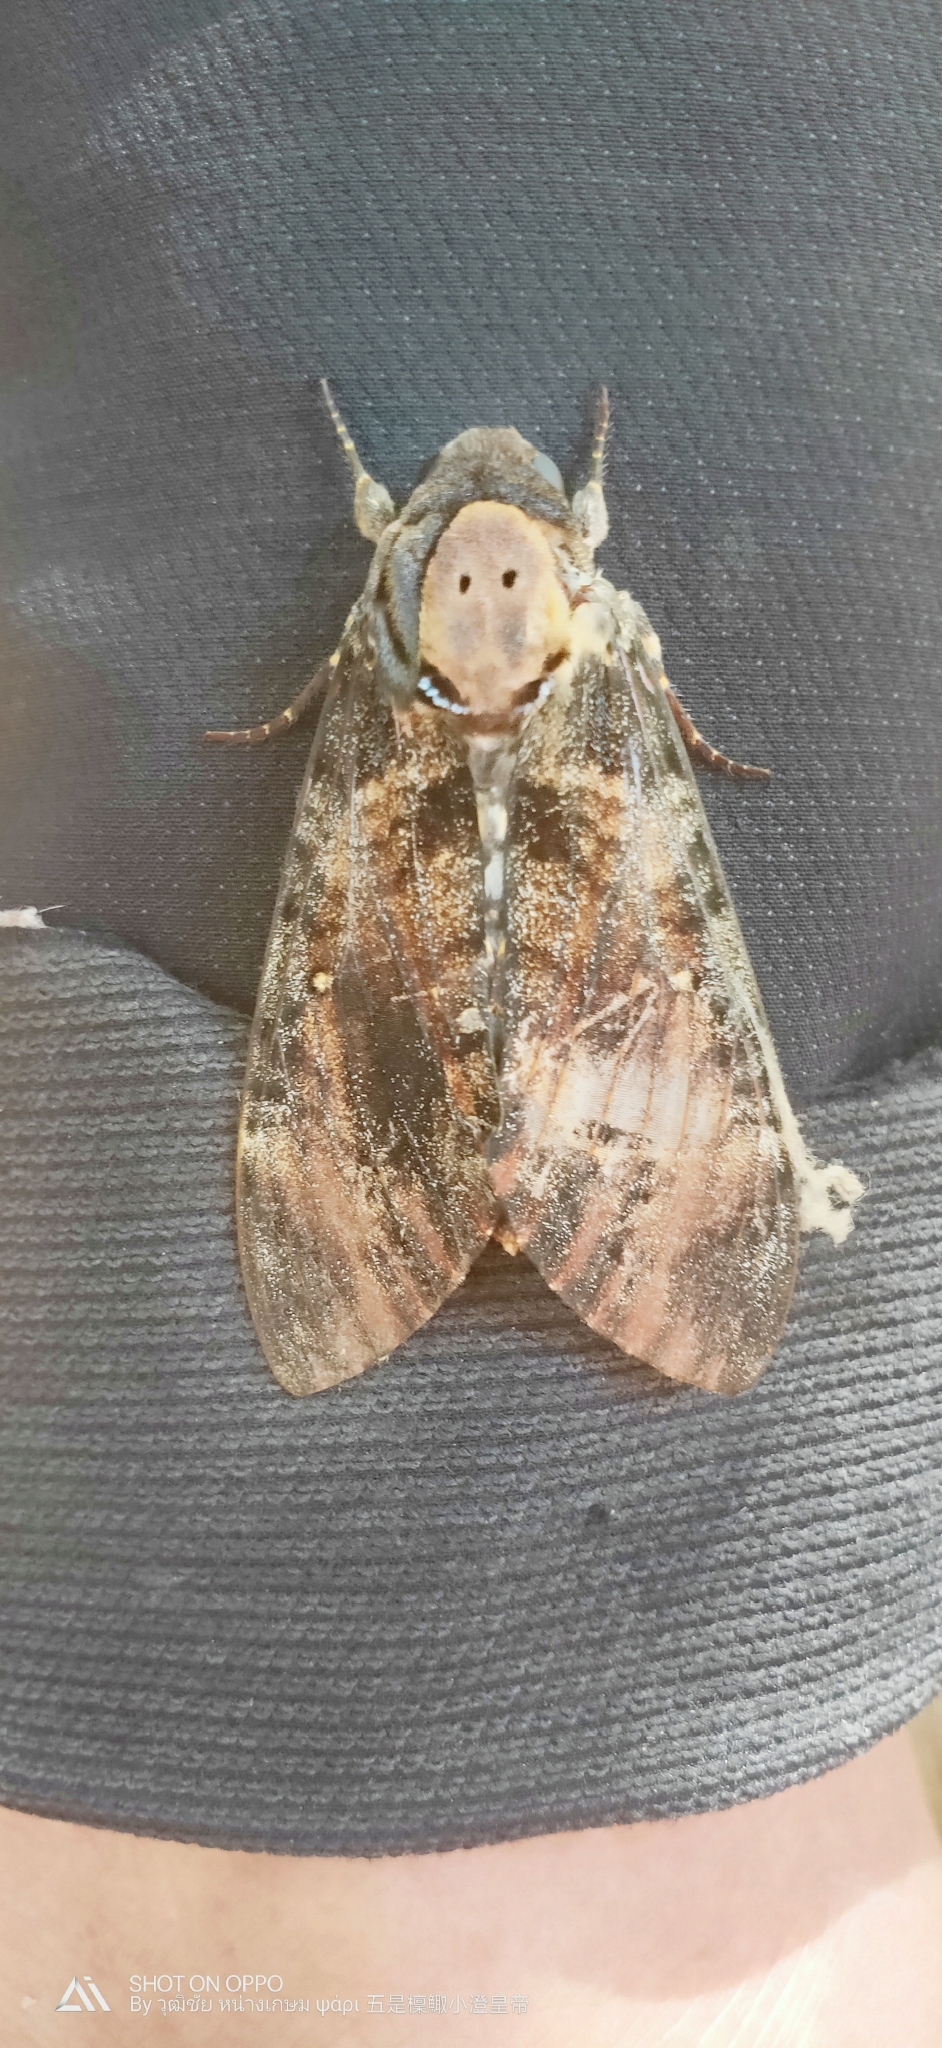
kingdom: Animalia
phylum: Arthropoda
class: Insecta
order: Lepidoptera
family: Sphingidae
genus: Acherontia
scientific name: Acherontia styx
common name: Death's-head hawk moth
